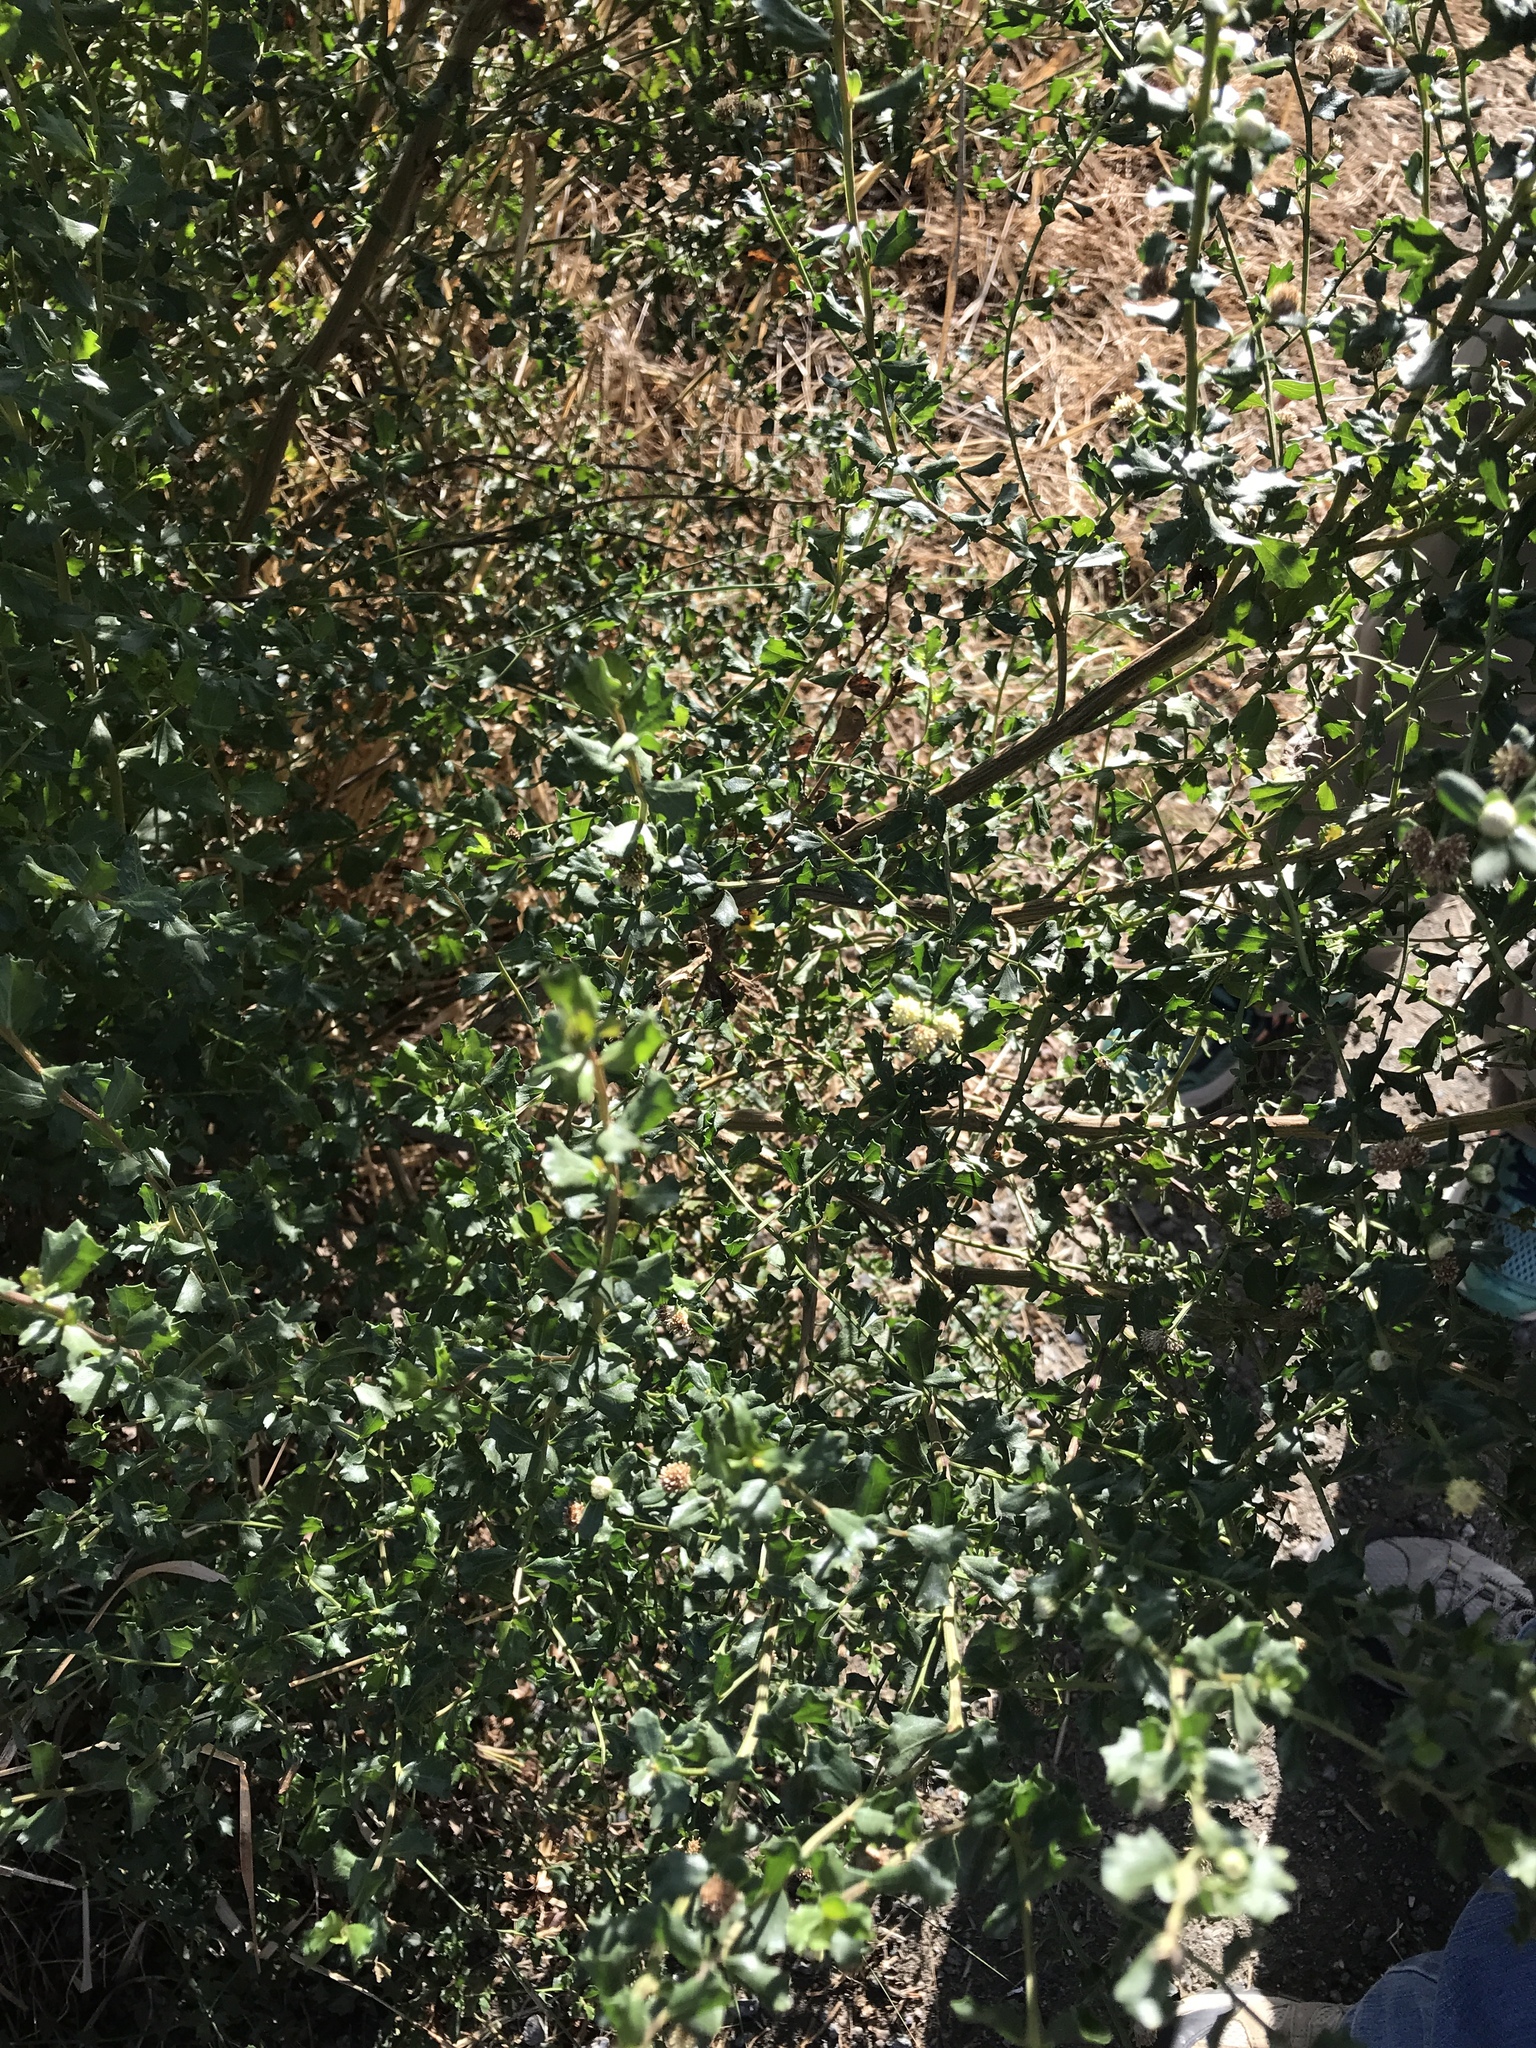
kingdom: Plantae
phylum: Tracheophyta
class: Magnoliopsida
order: Asterales
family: Asteraceae
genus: Baccharis
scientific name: Baccharis pilularis
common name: Coyotebrush
